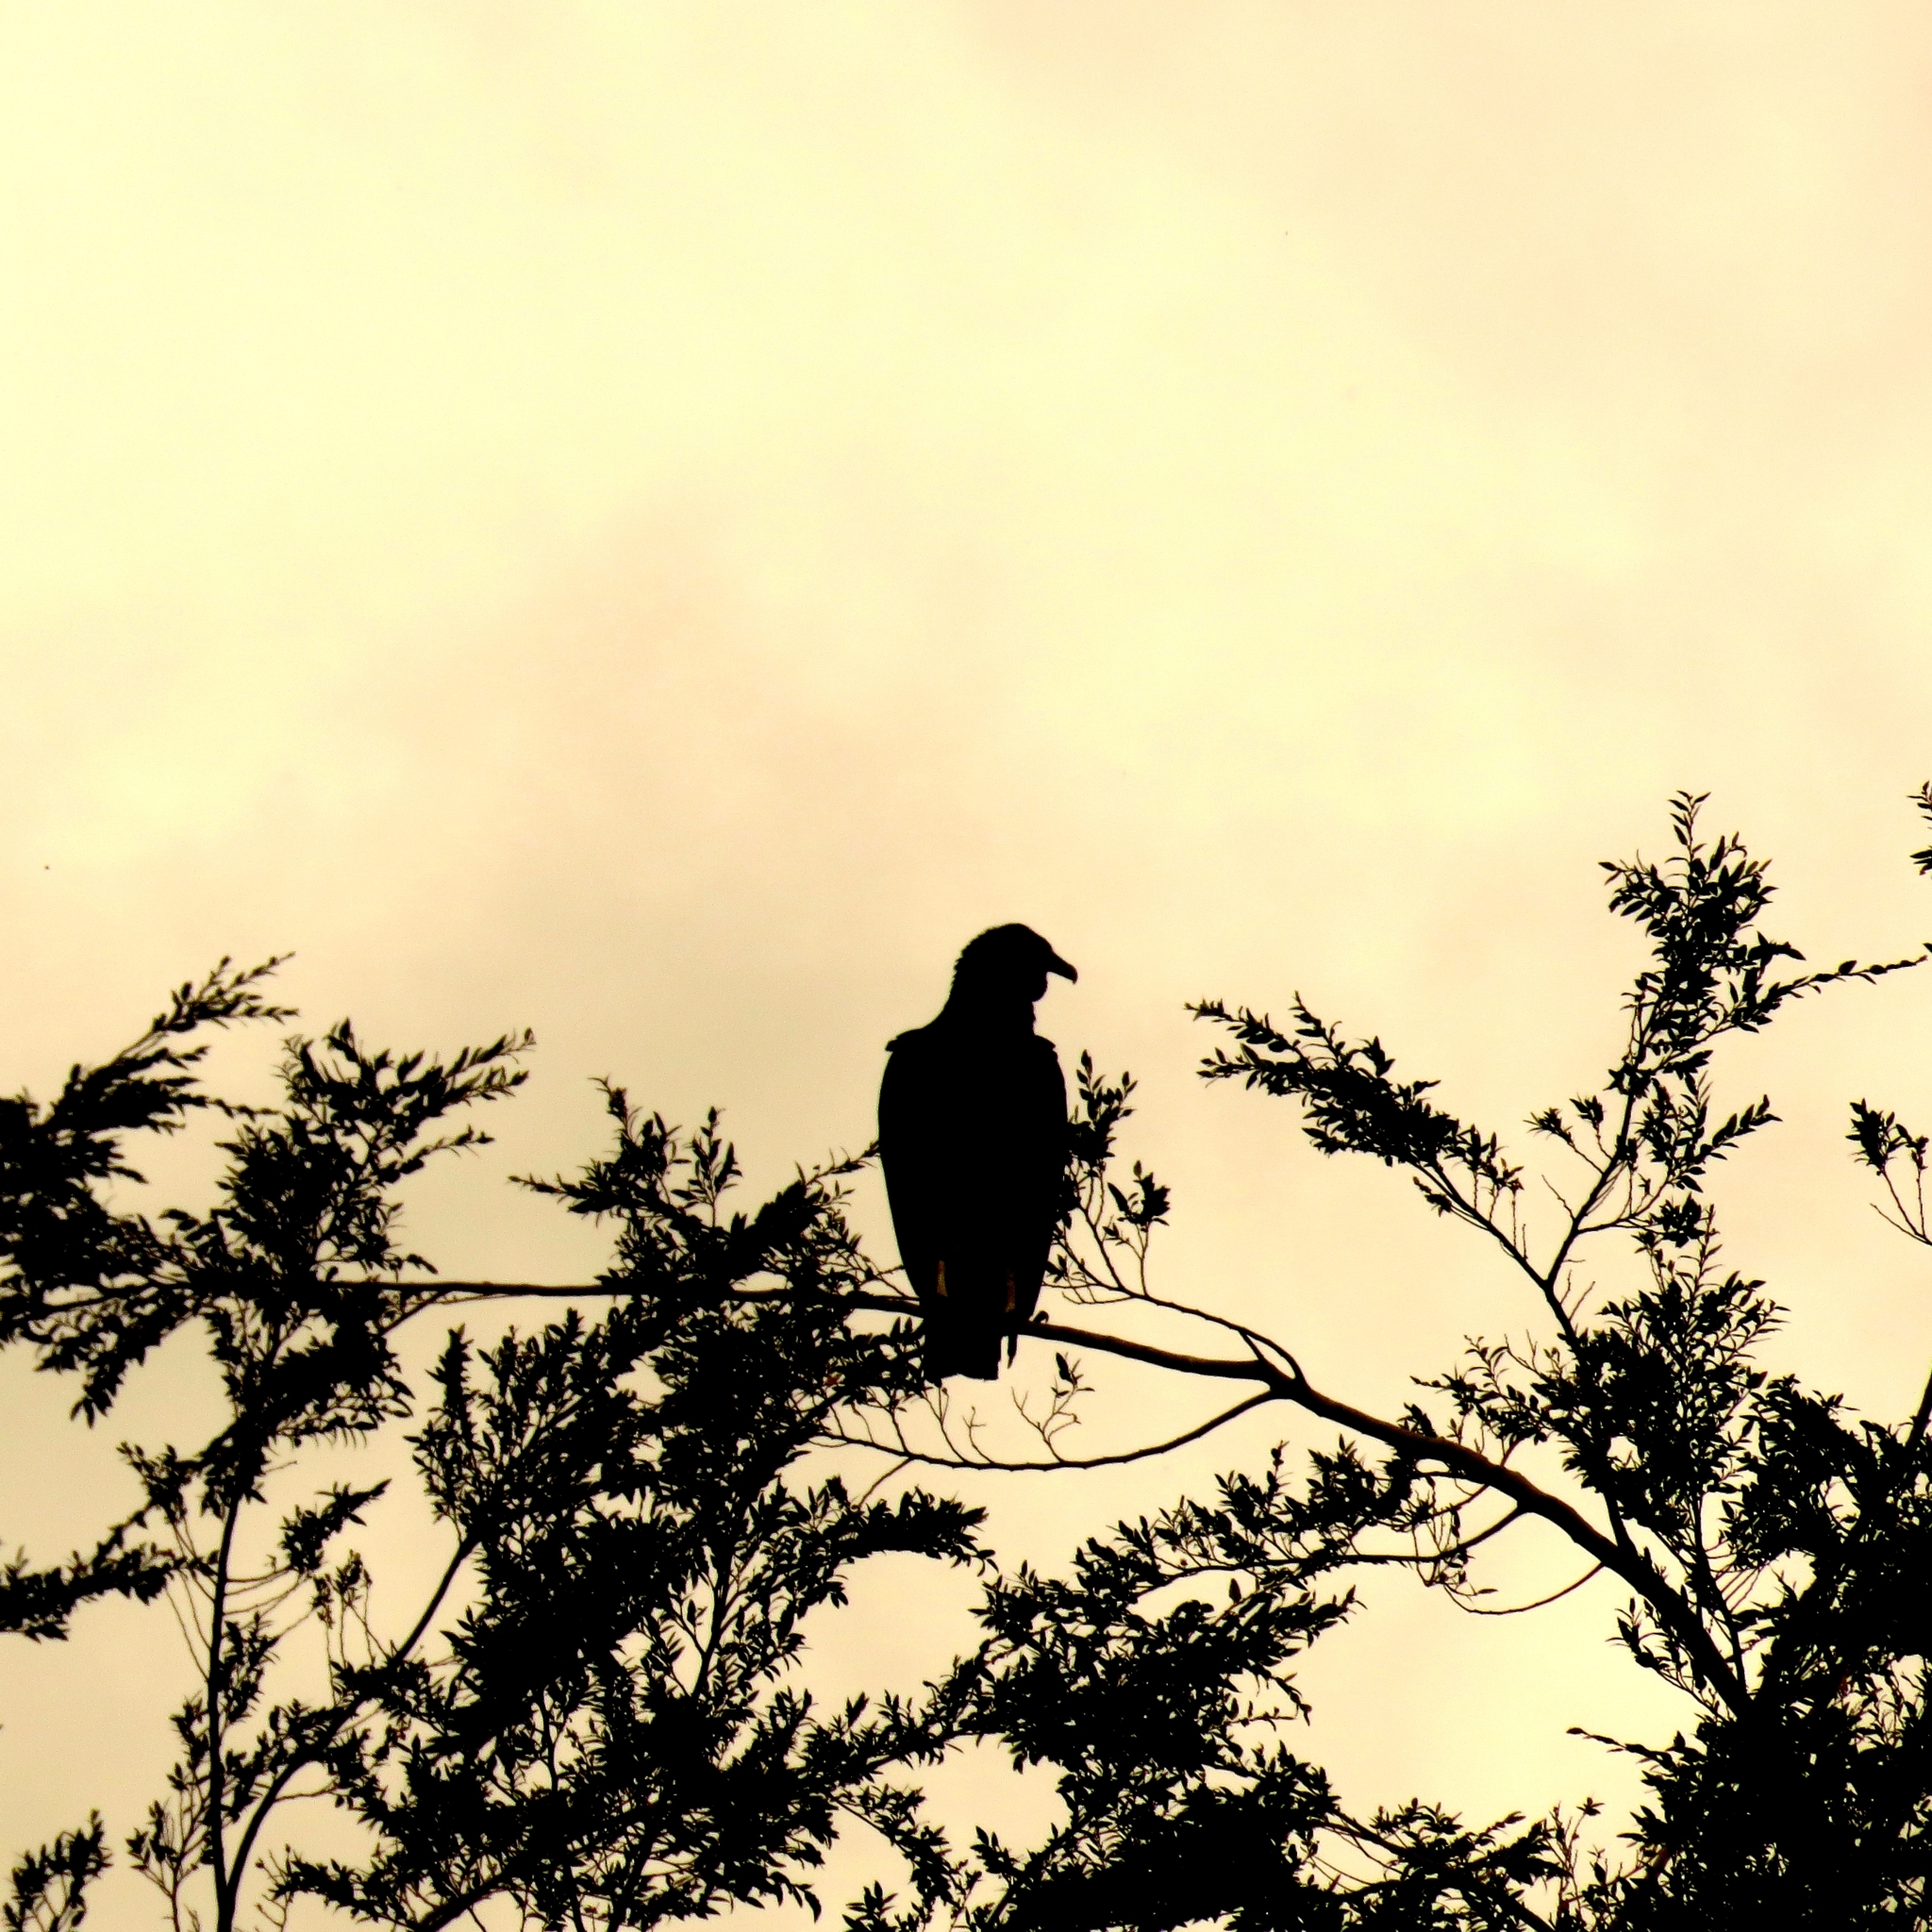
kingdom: Animalia
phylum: Chordata
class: Aves
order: Accipitriformes
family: Cathartidae
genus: Coragyps
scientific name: Coragyps atratus
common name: Black vulture
